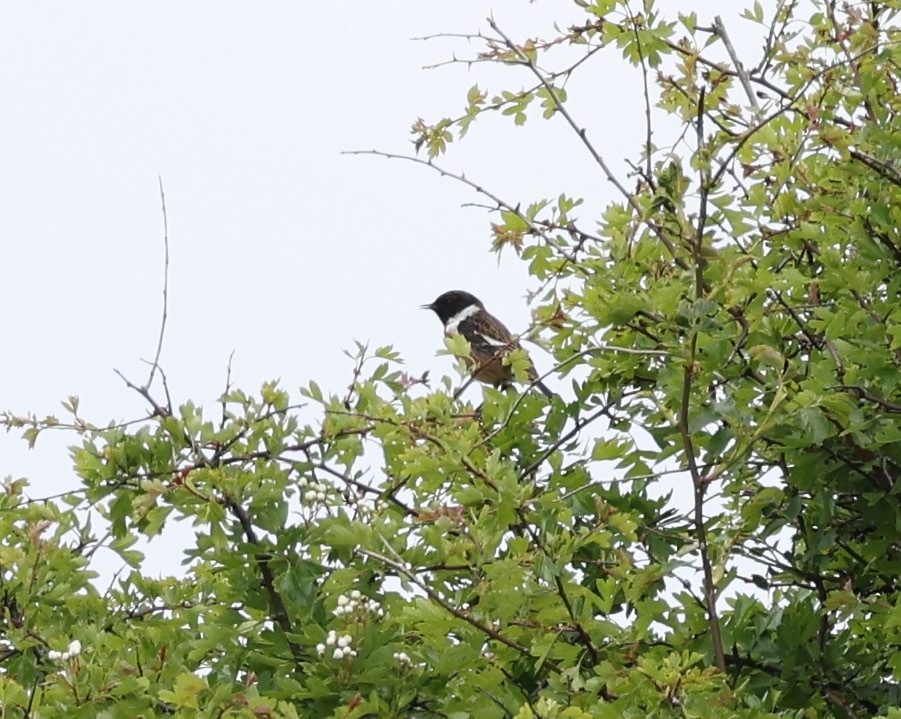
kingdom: Animalia
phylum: Chordata
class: Aves
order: Passeriformes
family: Muscicapidae
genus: Saxicola
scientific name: Saxicola rubicola
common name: European stonechat
